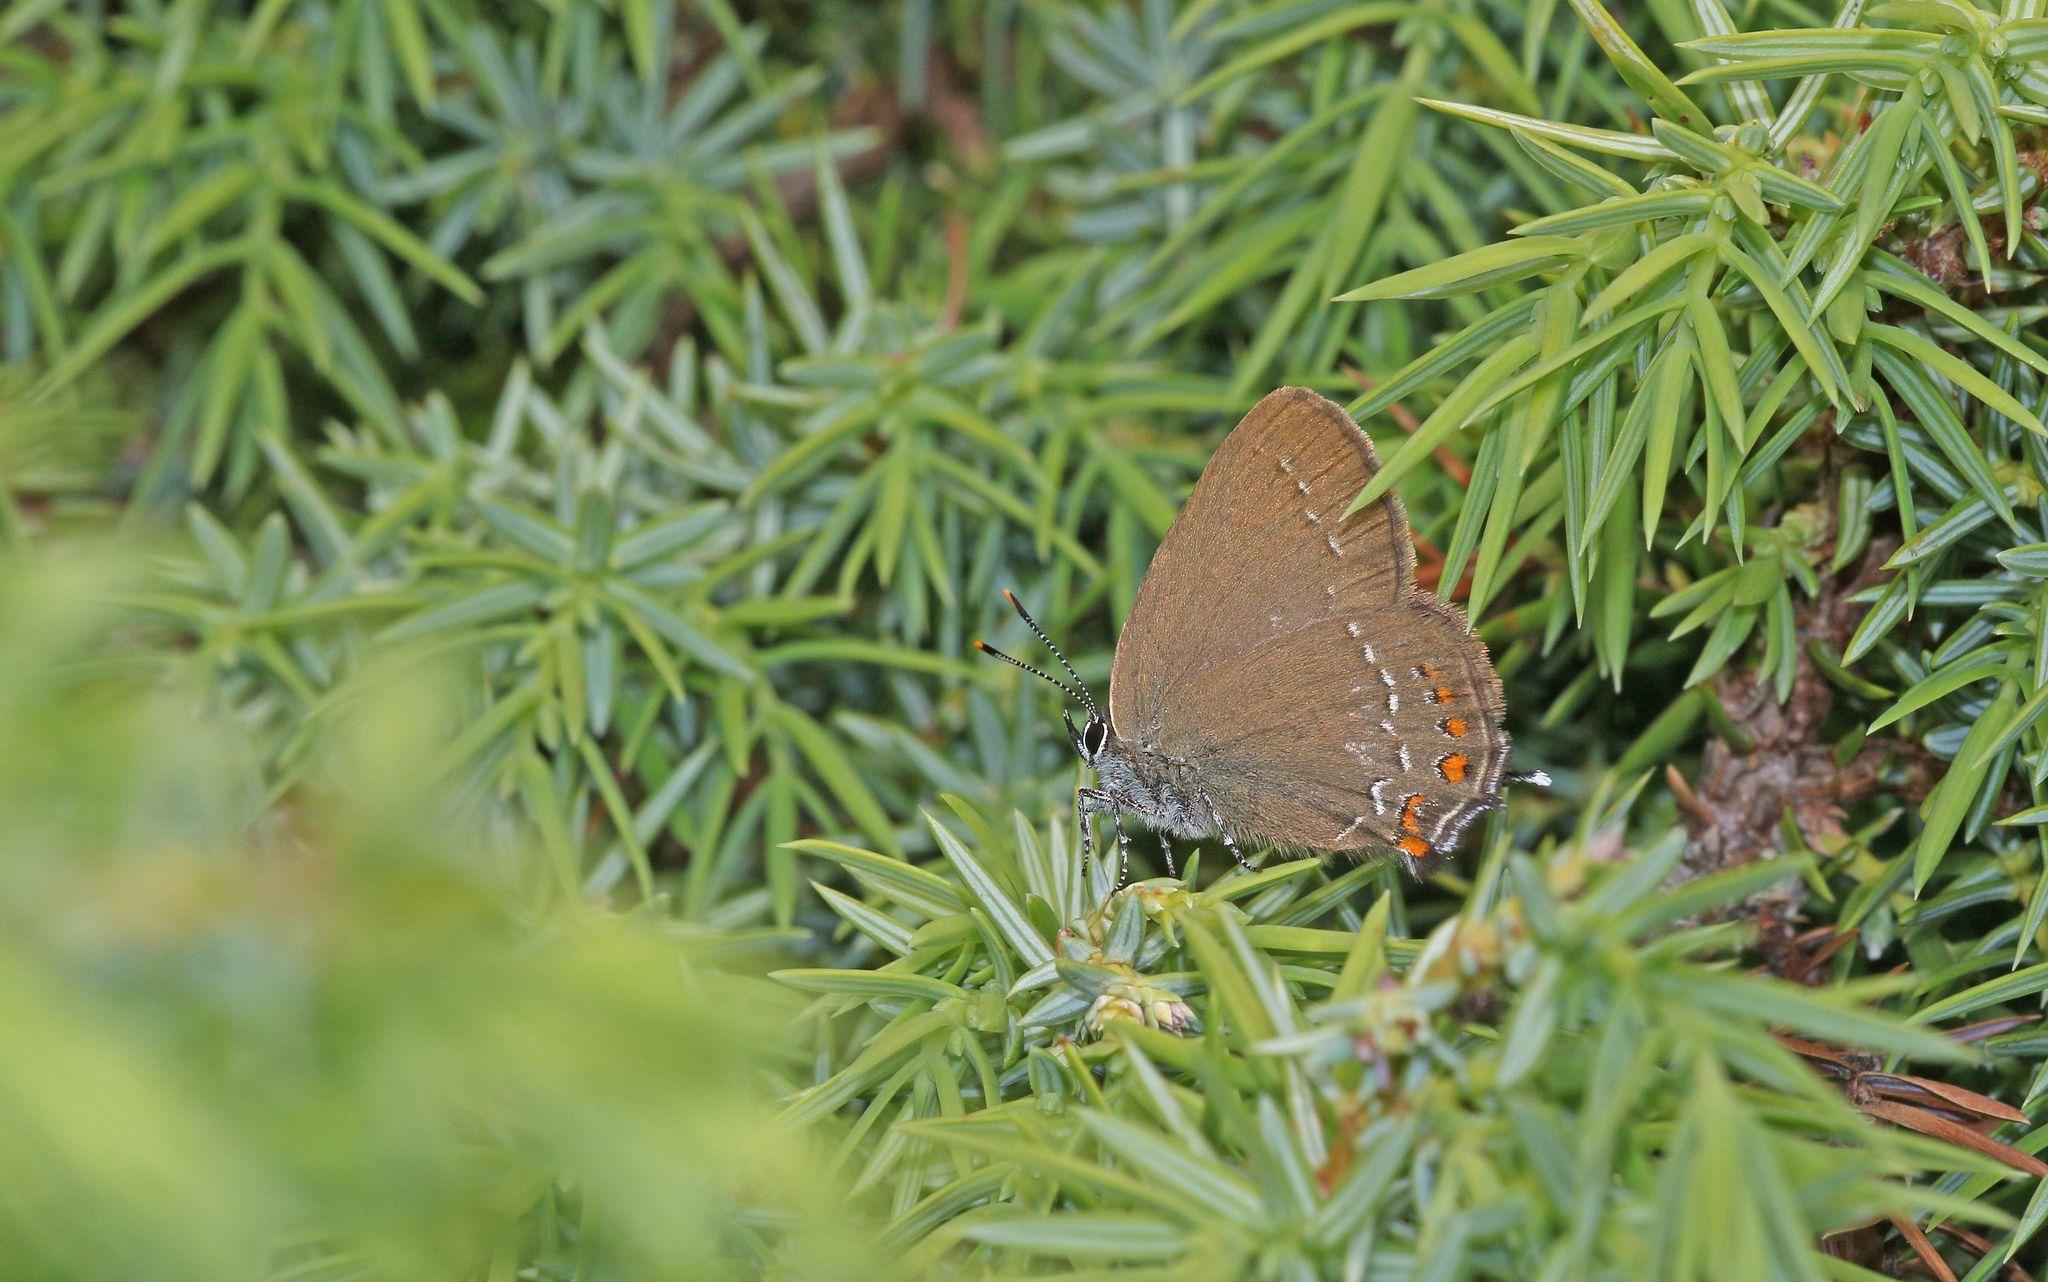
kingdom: Animalia
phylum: Arthropoda
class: Insecta
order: Lepidoptera
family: Lycaenidae
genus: Nordmannia
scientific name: Nordmannia ilicis
